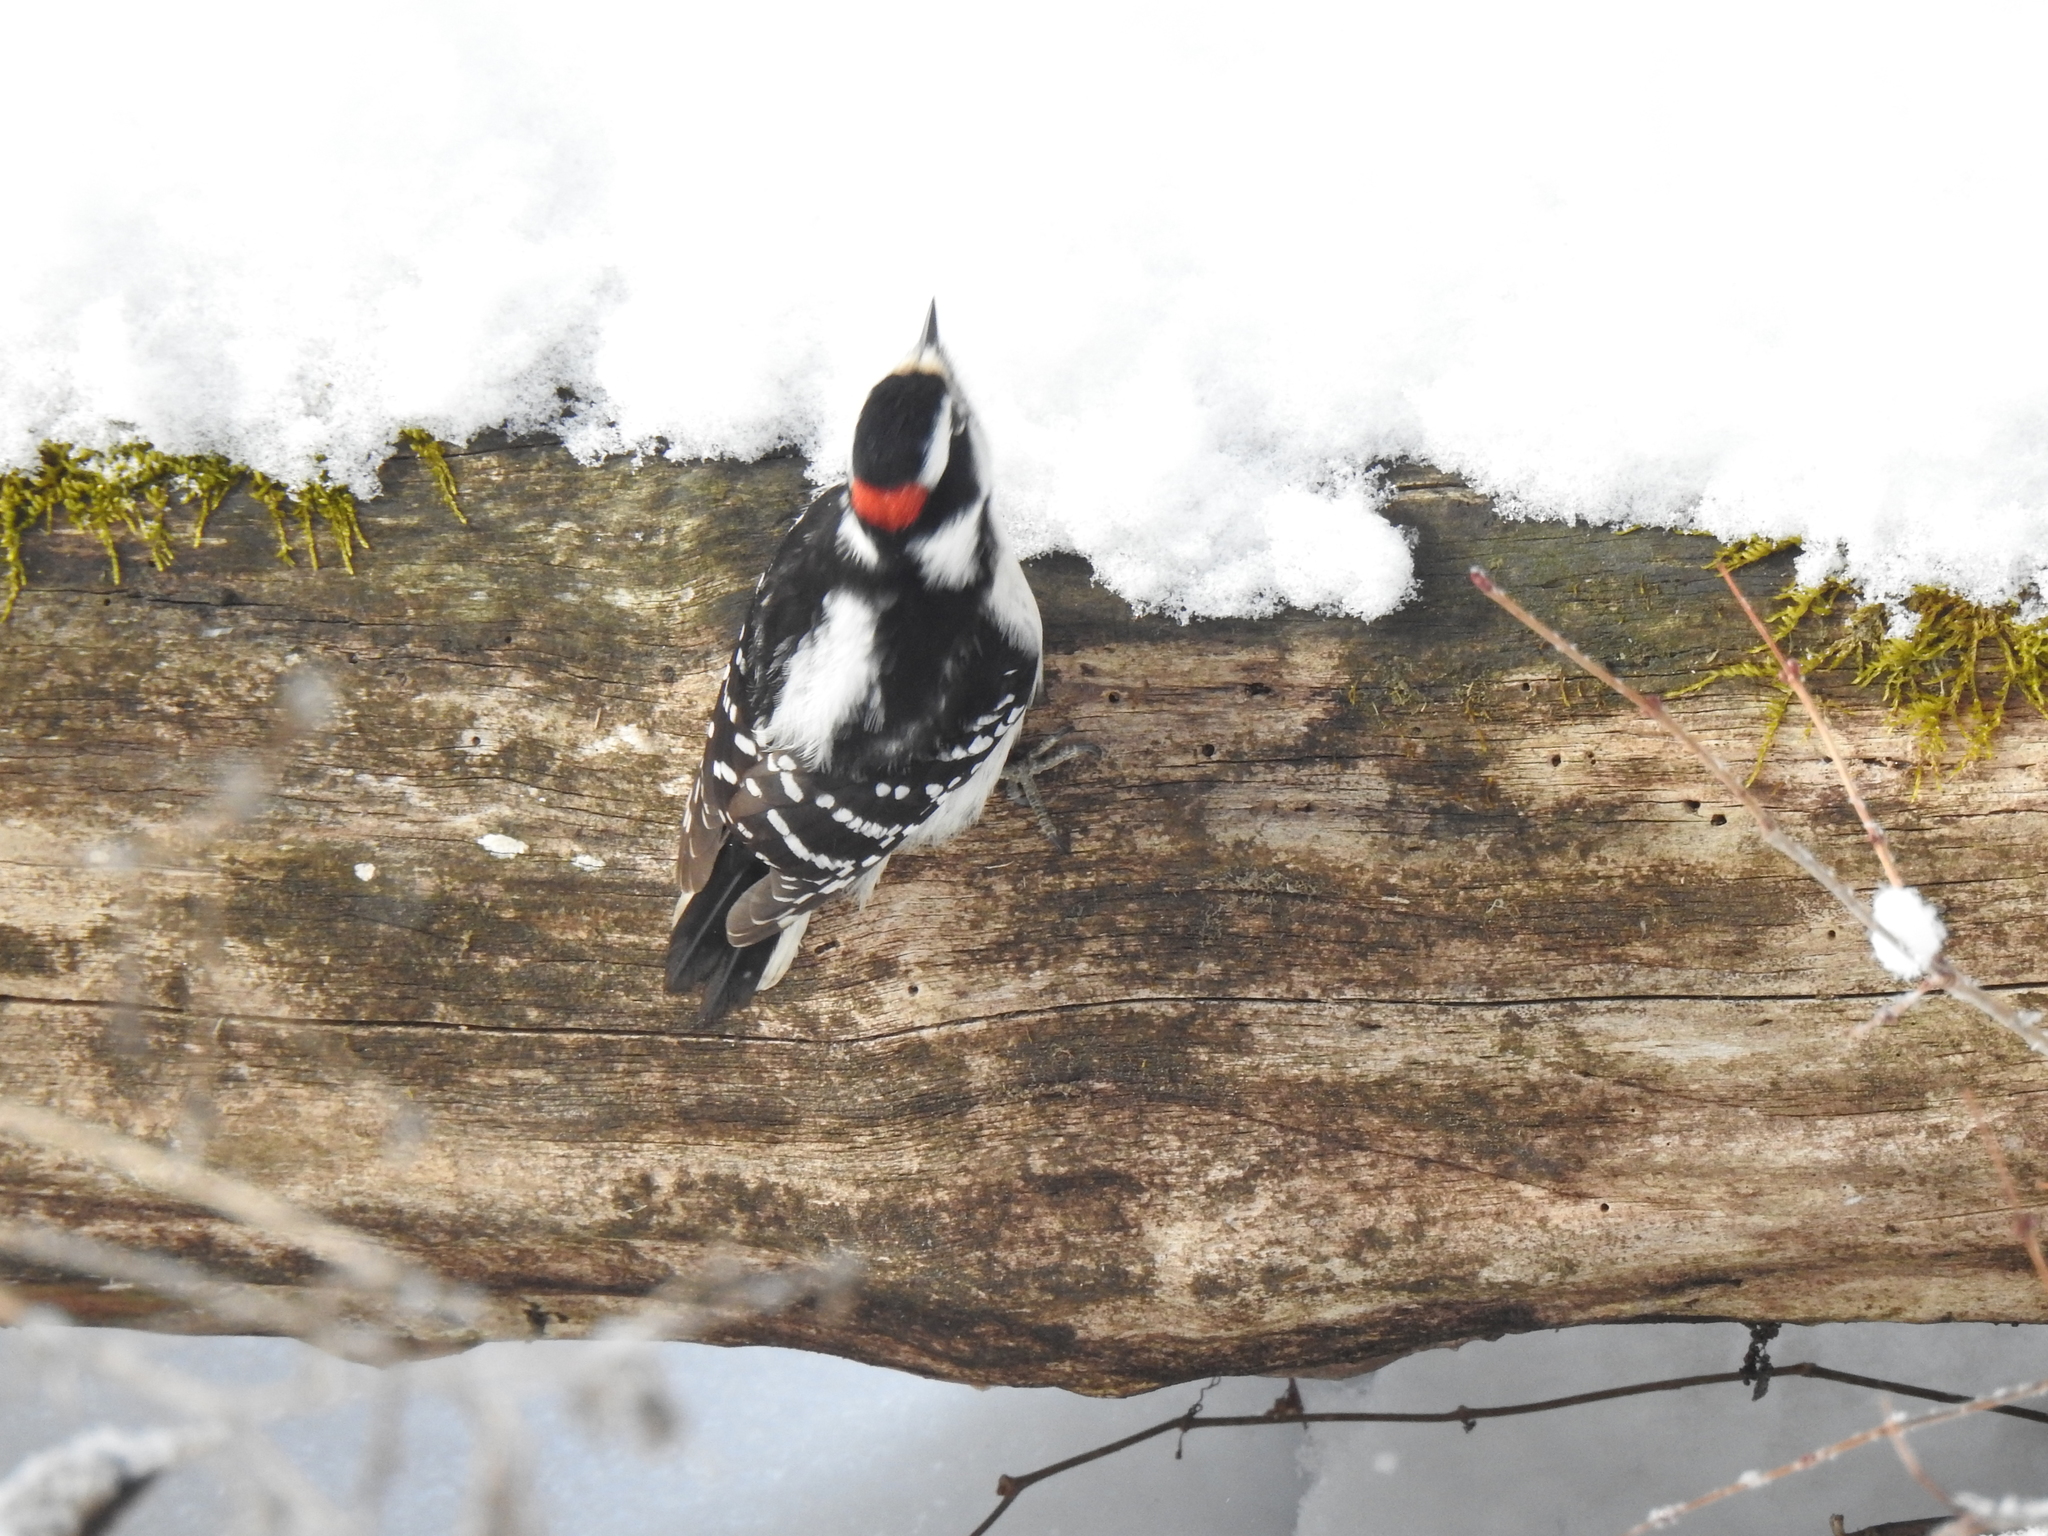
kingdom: Animalia
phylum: Chordata
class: Aves
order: Piciformes
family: Picidae
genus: Dryobates
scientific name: Dryobates pubescens
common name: Downy woodpecker
